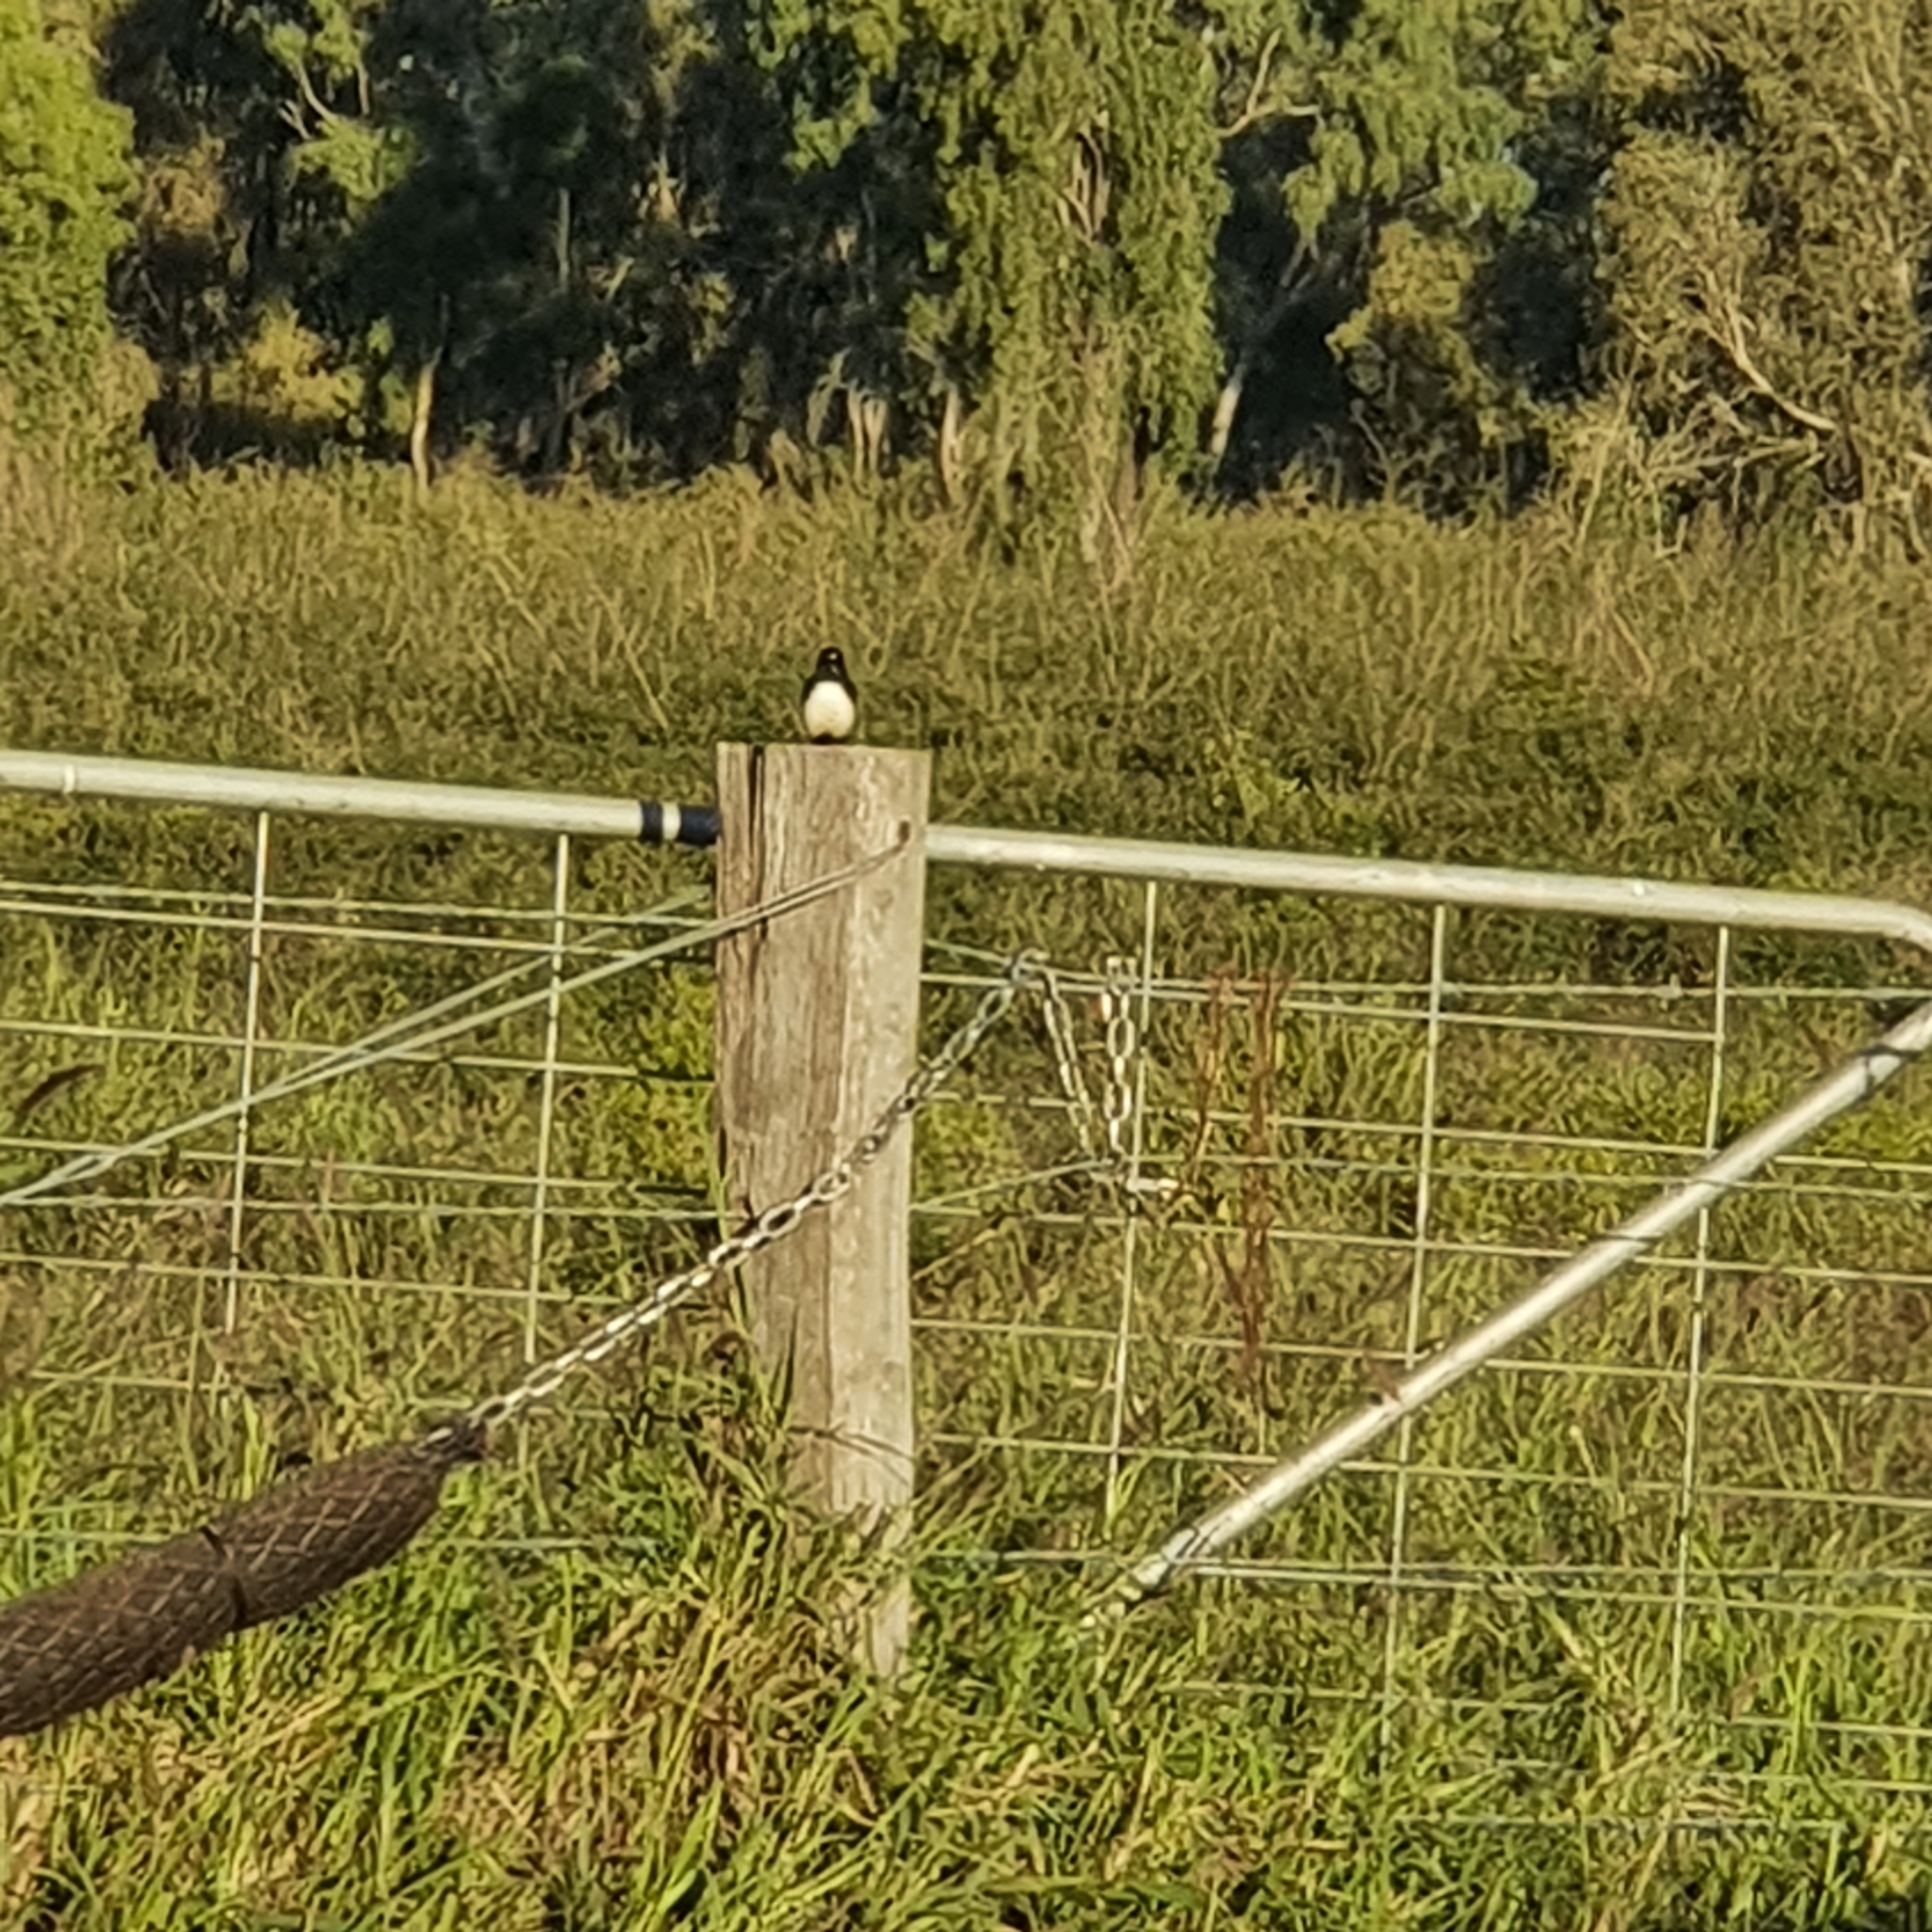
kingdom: Animalia
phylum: Chordata
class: Aves
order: Passeriformes
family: Rhipiduridae
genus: Rhipidura
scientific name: Rhipidura leucophrys
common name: Willie wagtail
